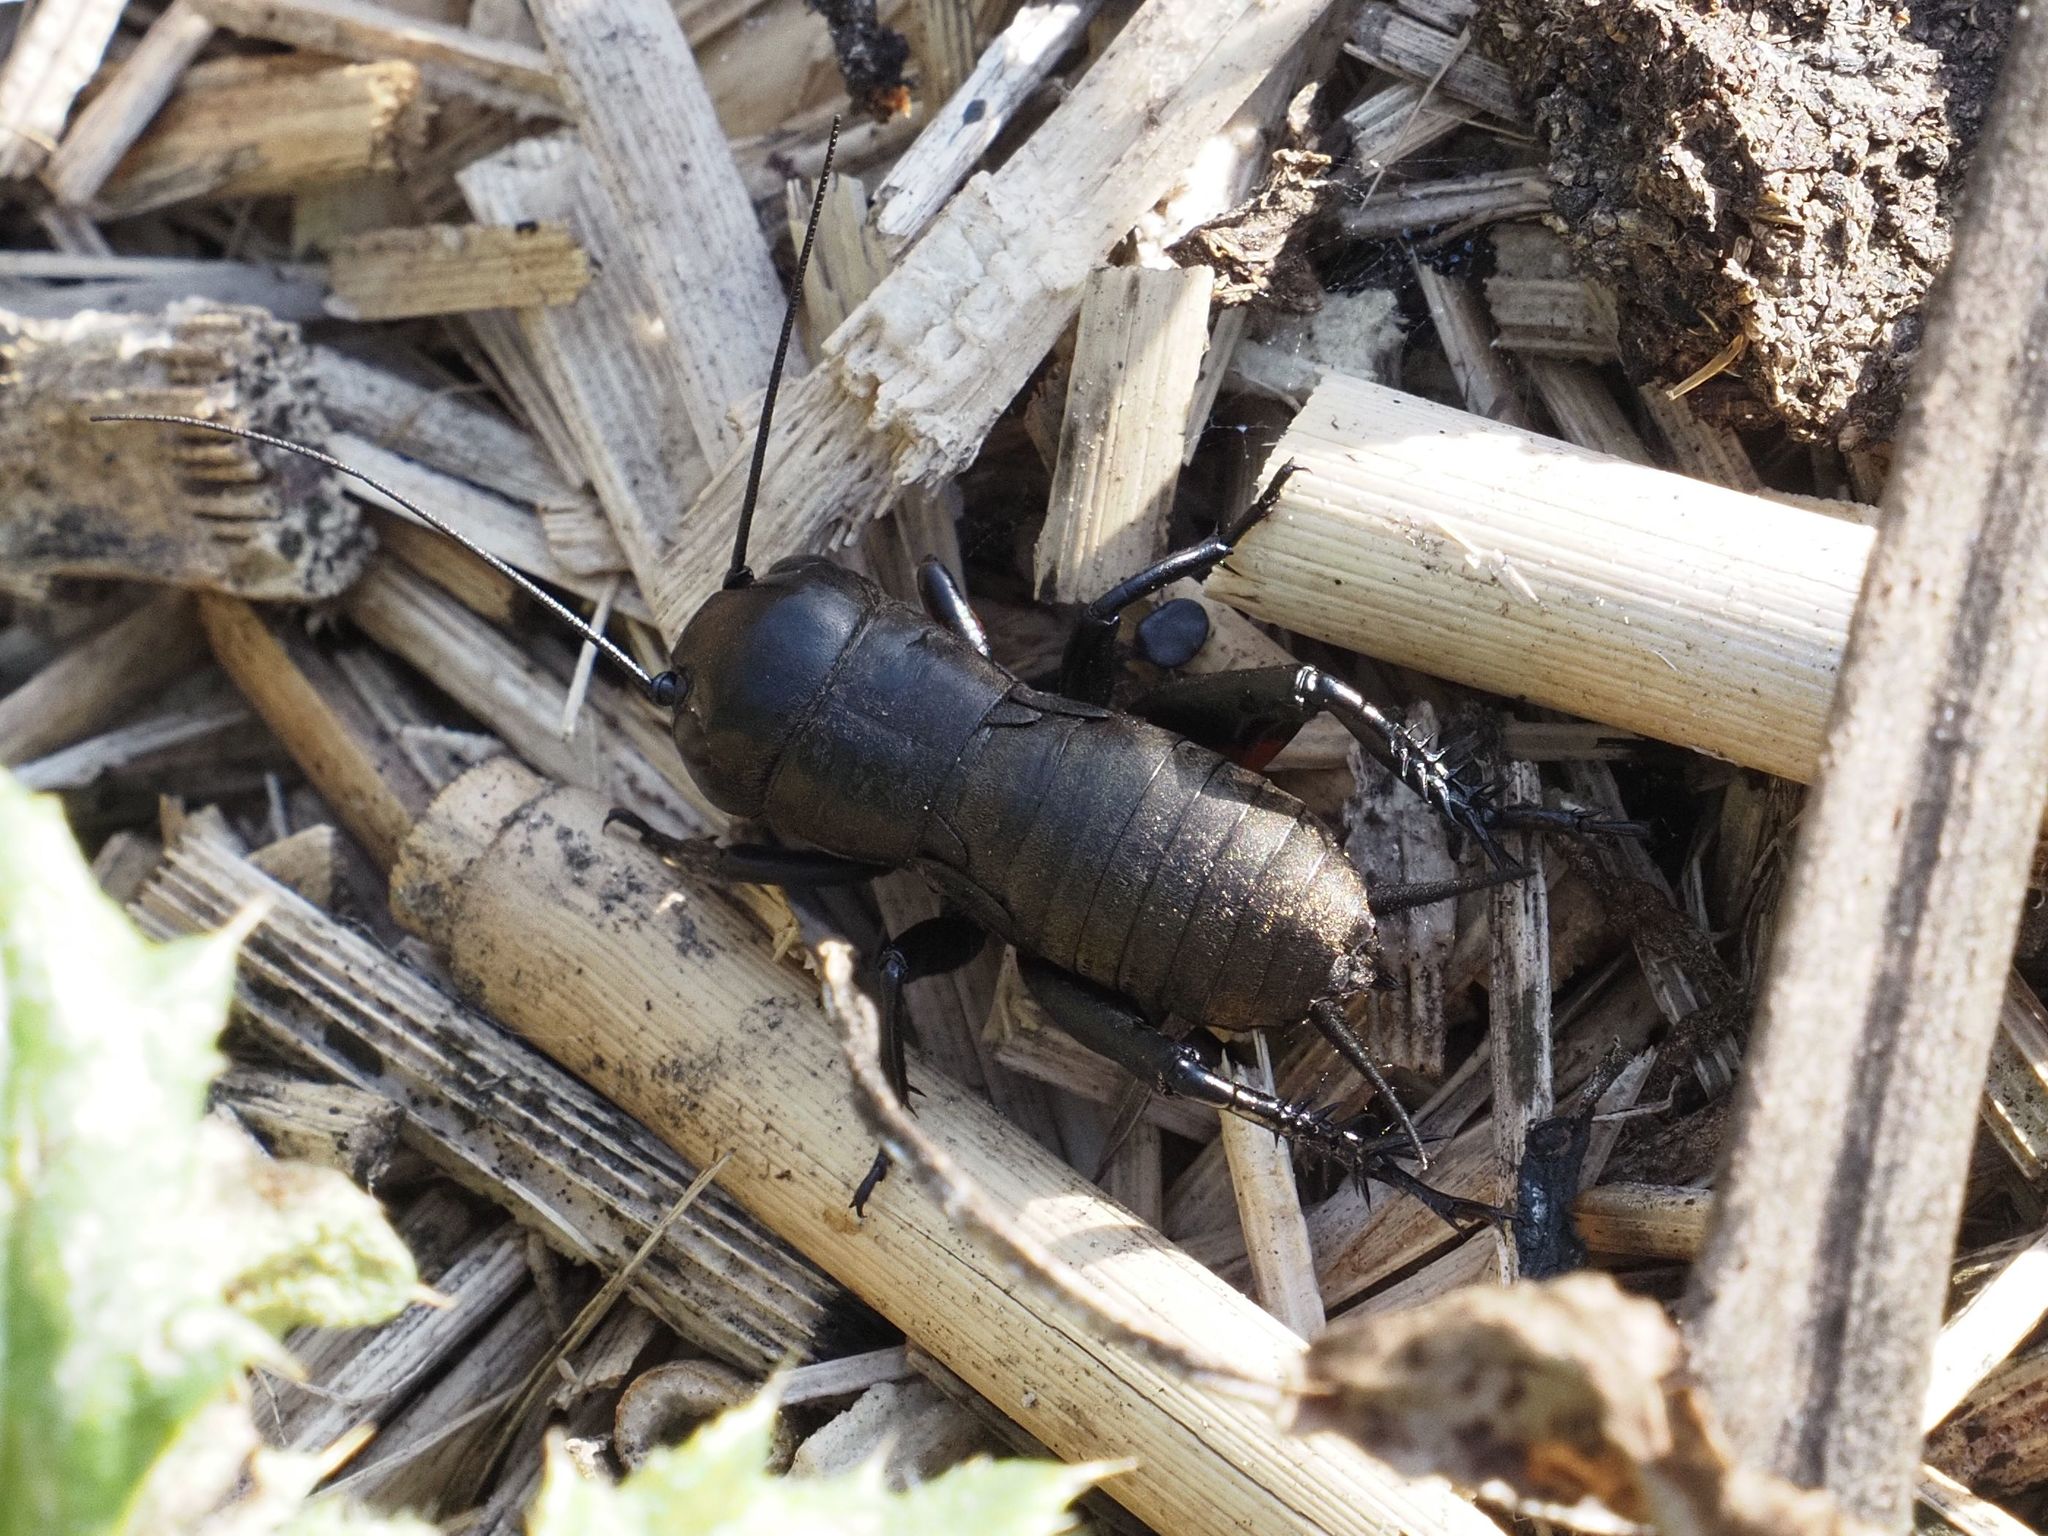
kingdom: Animalia
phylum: Arthropoda
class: Insecta
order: Orthoptera
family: Gryllidae
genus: Gryllus
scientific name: Gryllus campestris
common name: Field cricket
